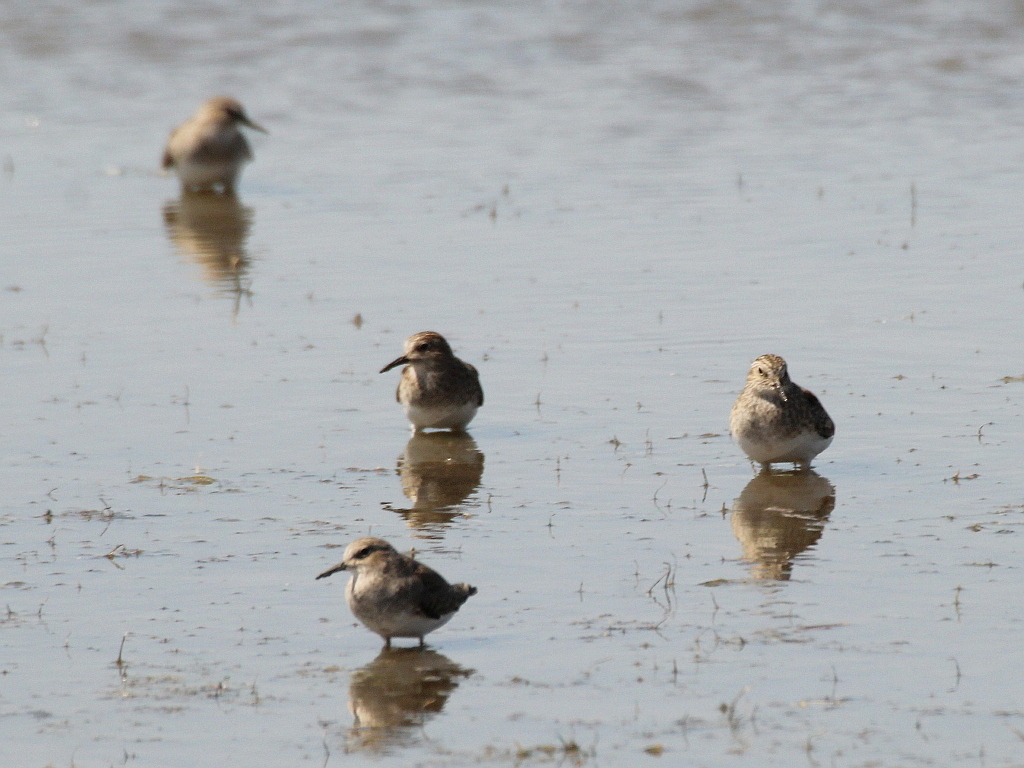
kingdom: Animalia
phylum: Chordata
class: Aves
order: Charadriiformes
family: Scolopacidae
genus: Calidris
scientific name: Calidris temminckii
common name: Temminck's stint
